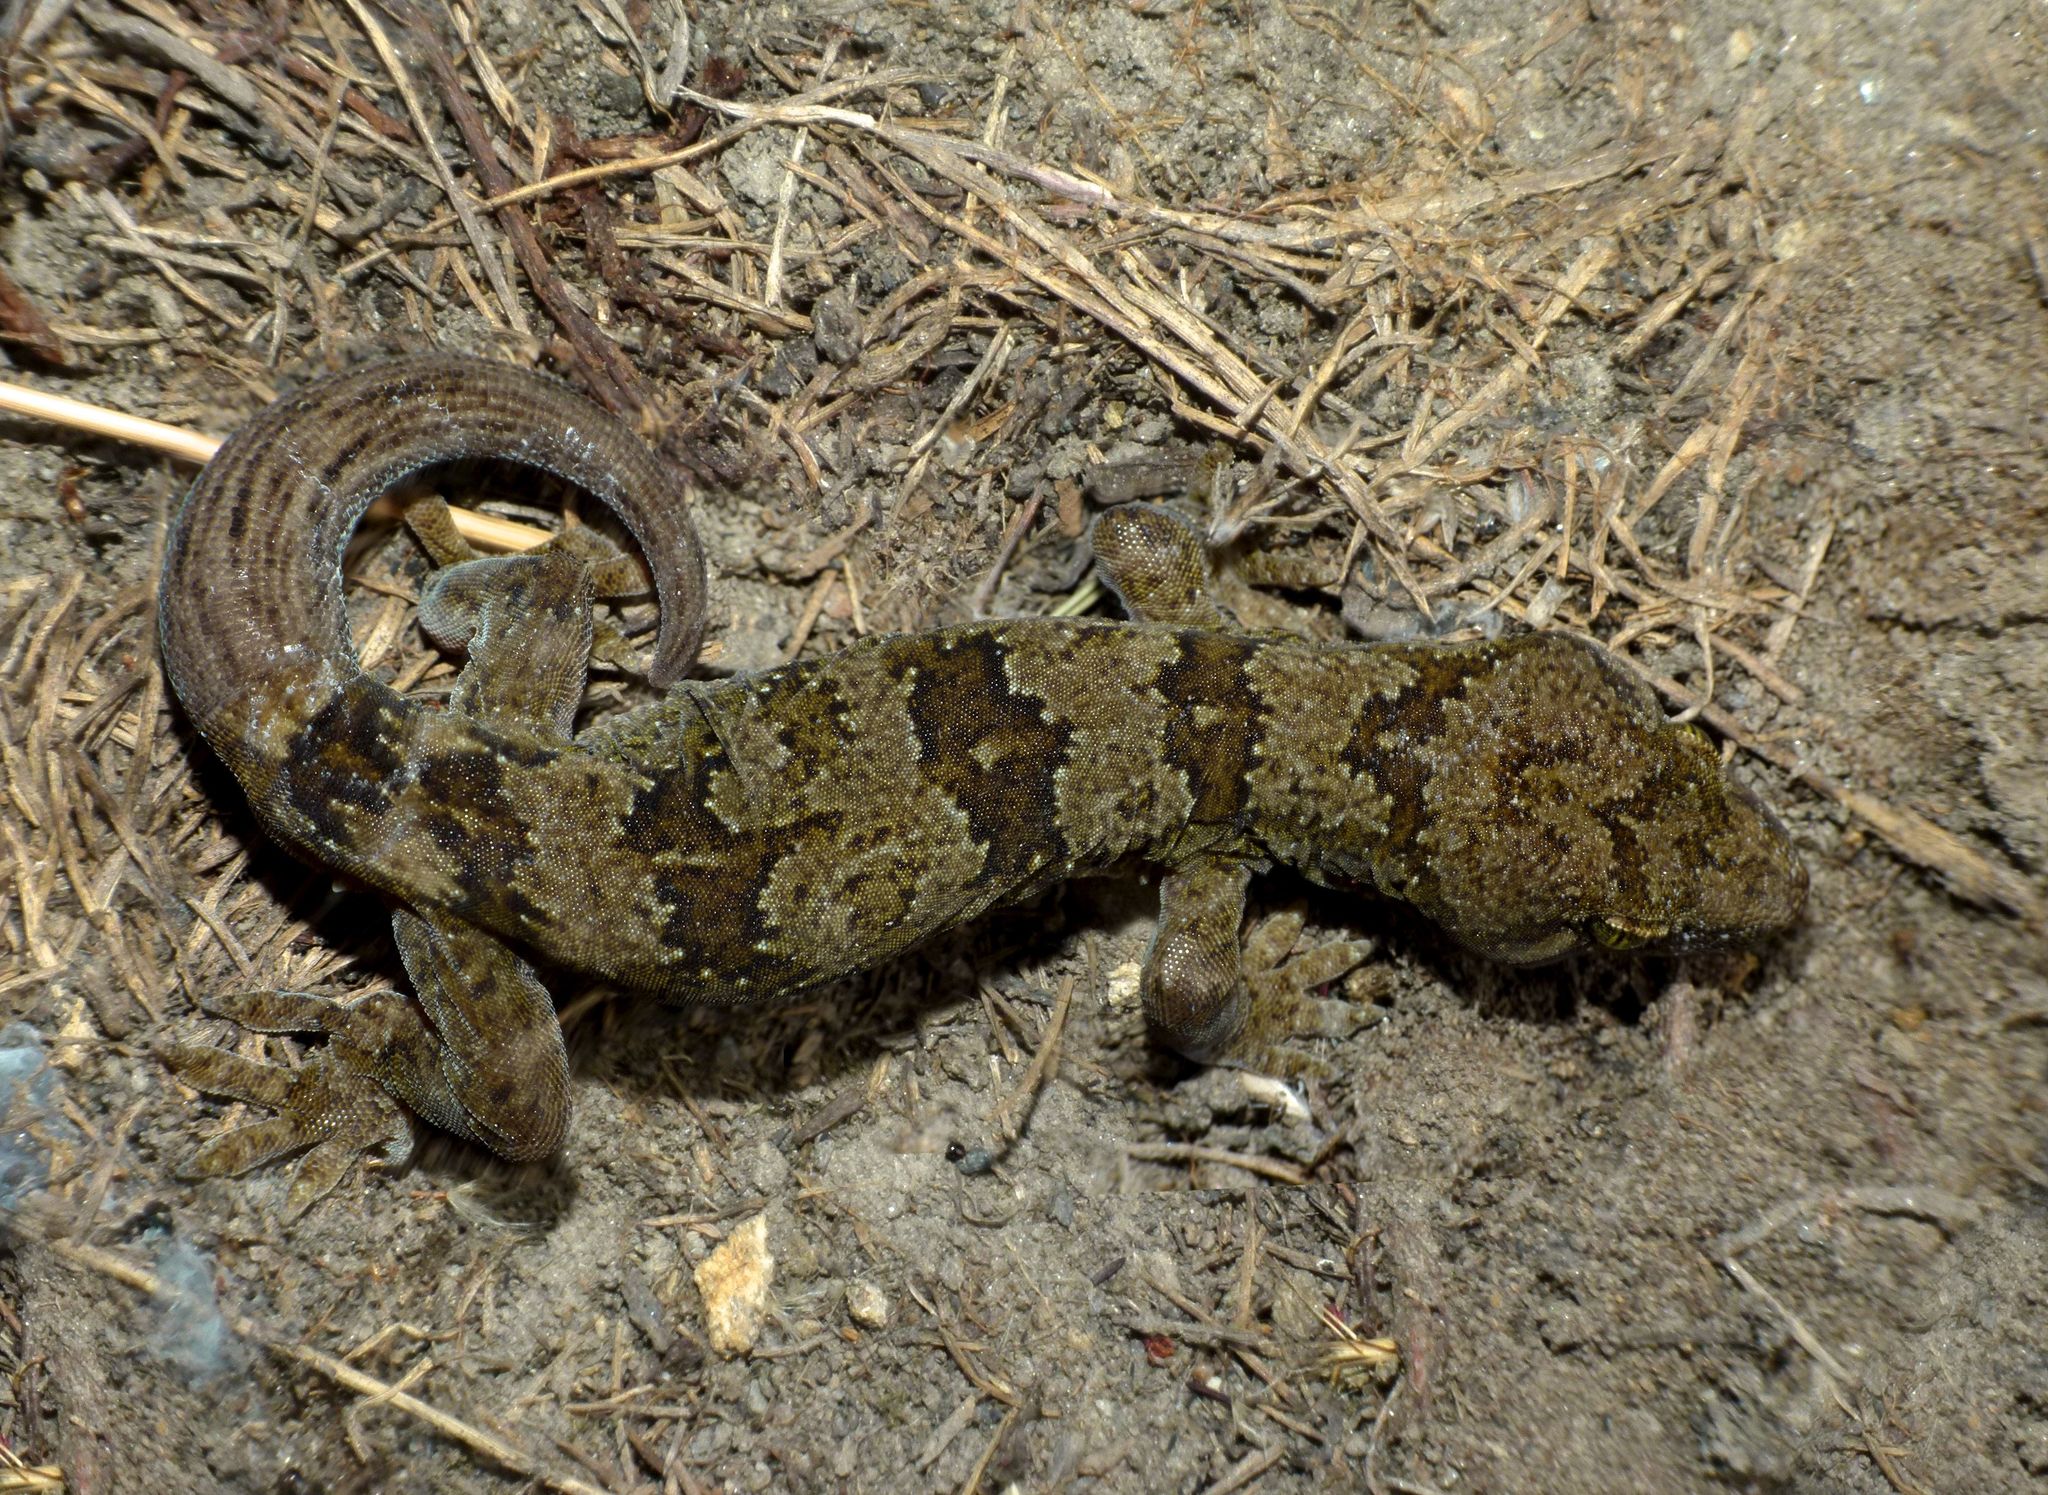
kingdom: Animalia
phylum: Chordata
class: Squamata
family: Diplodactylidae
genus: Woodworthia
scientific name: Woodworthia
